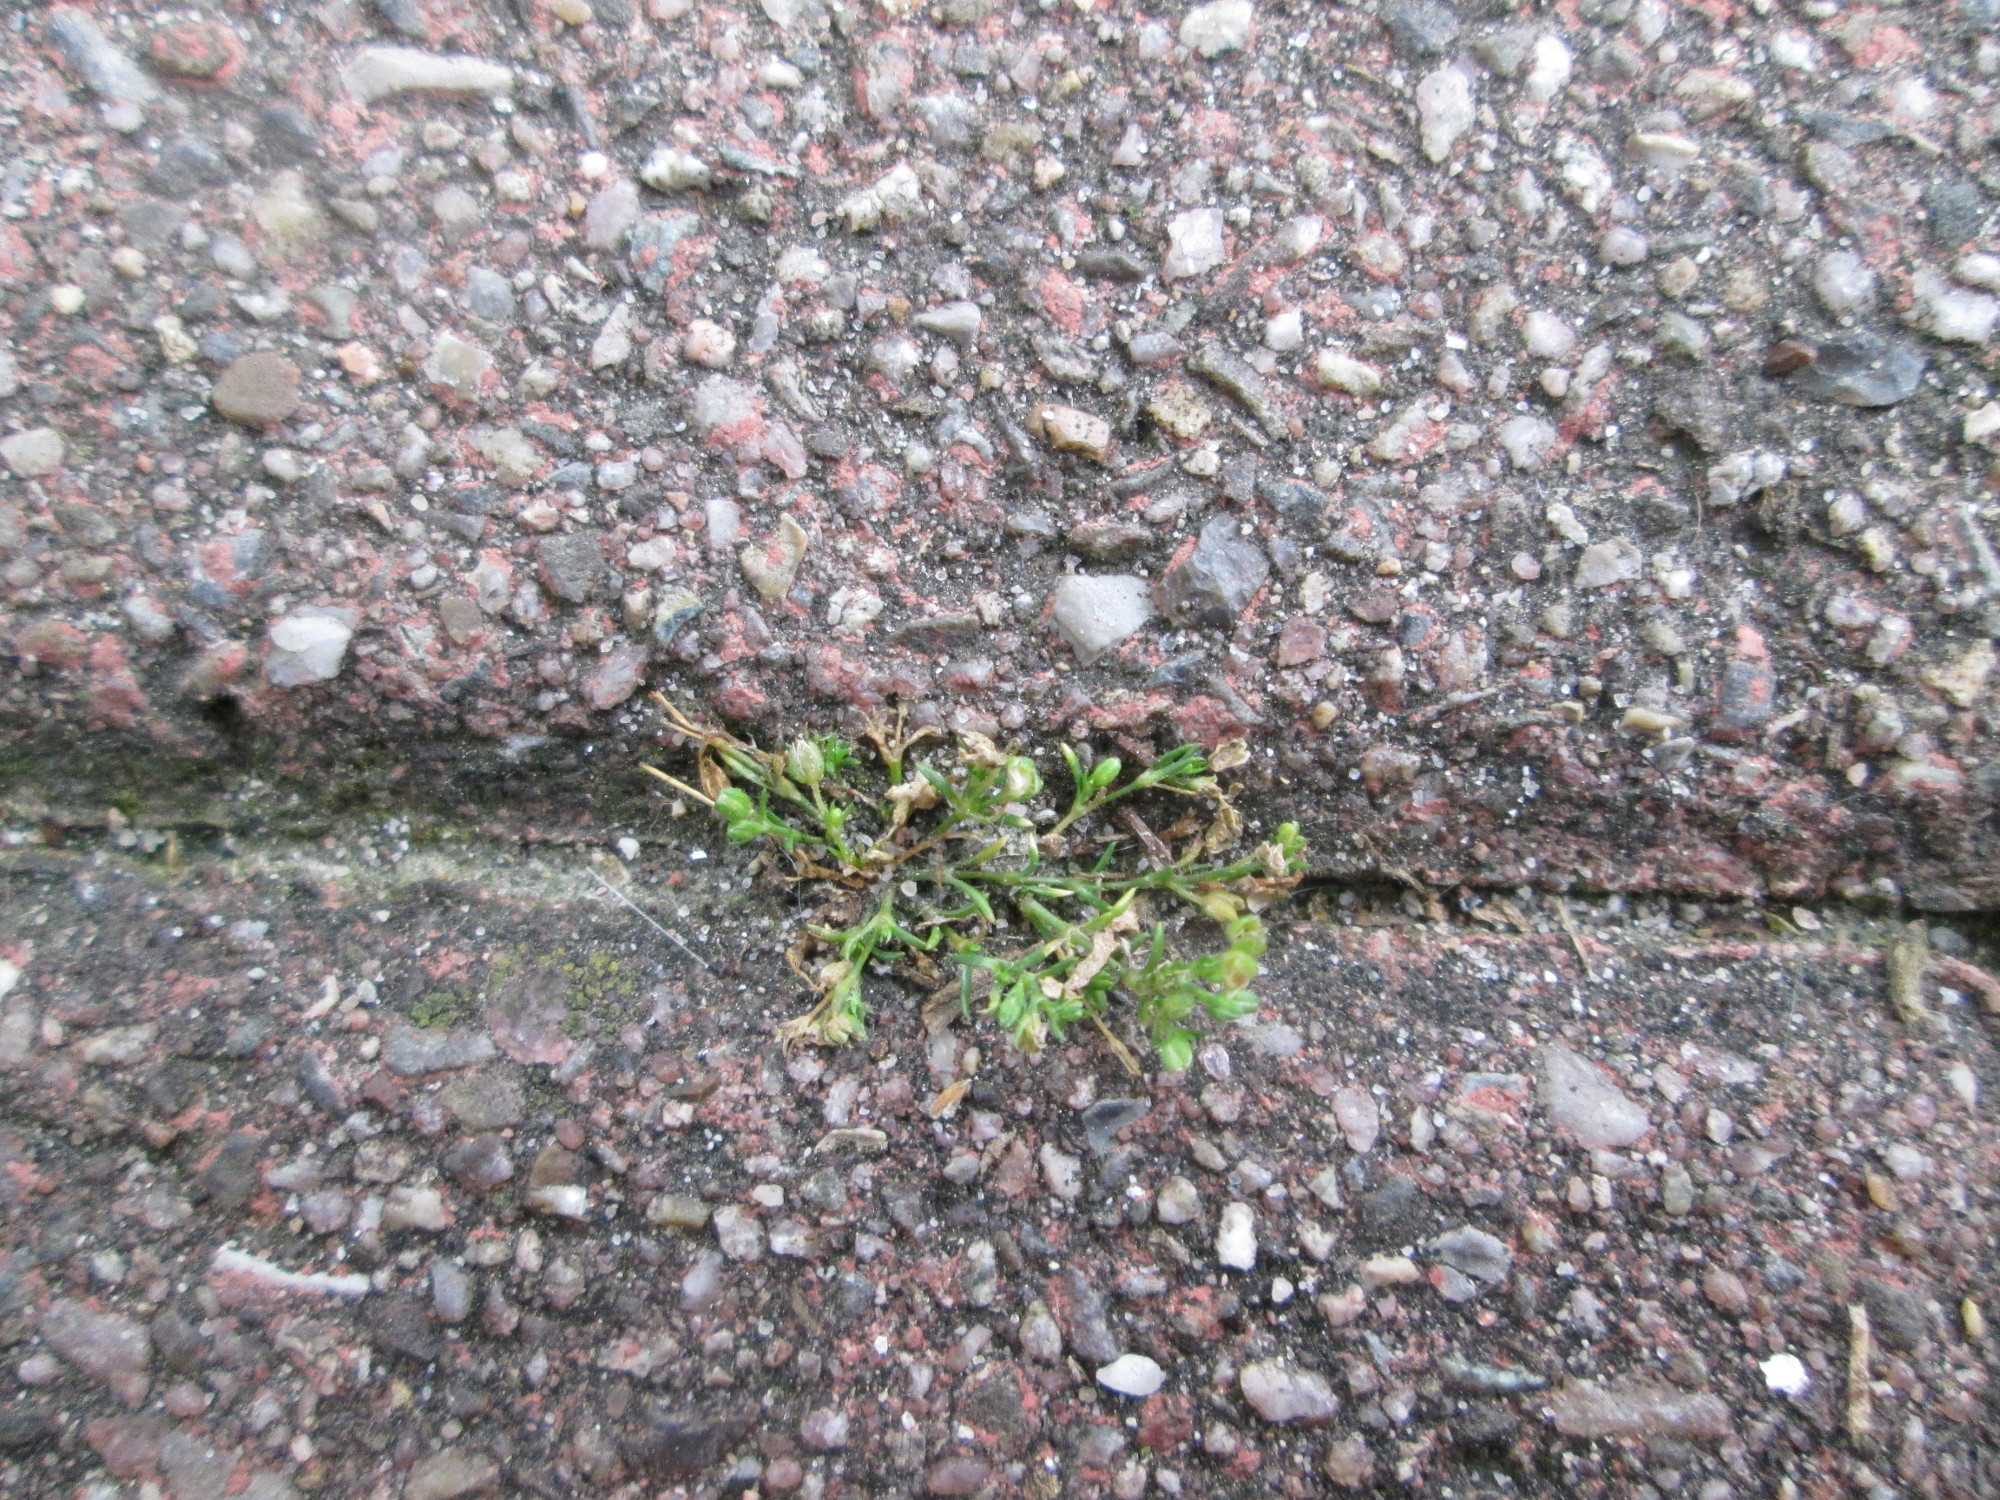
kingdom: Plantae
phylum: Tracheophyta
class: Magnoliopsida
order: Caryophyllales
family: Caryophyllaceae
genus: Sagina
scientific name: Sagina procumbens
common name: Procumbent pearlwort
